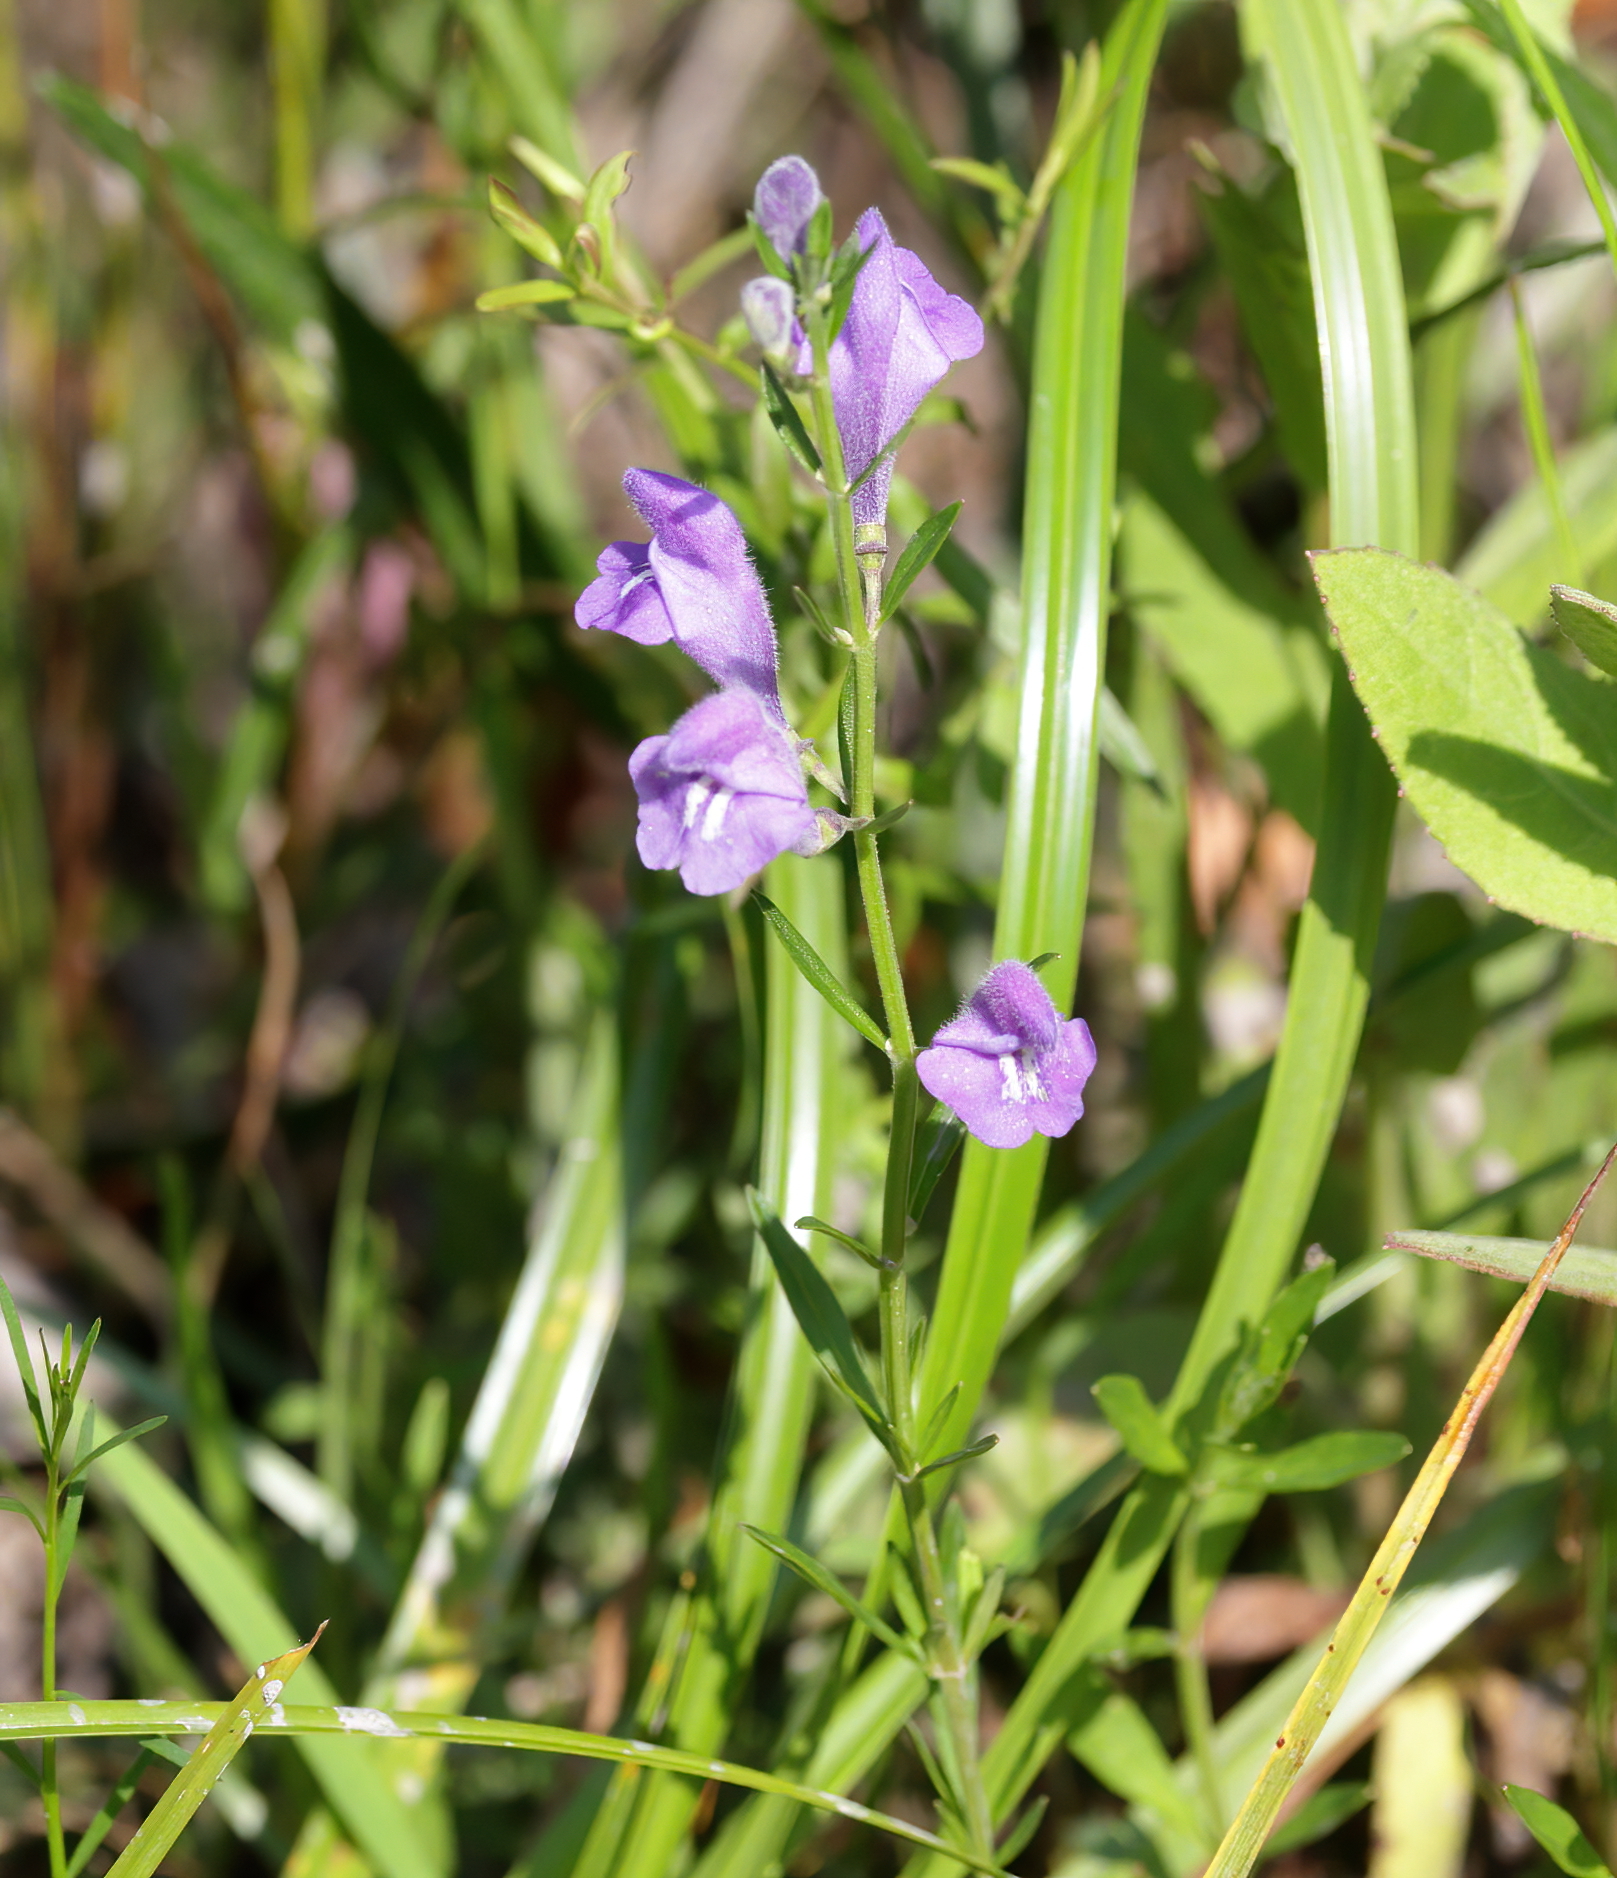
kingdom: Plantae
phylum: Tracheophyta
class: Magnoliopsida
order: Lamiales
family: Lamiaceae
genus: Scutellaria
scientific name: Scutellaria integrifolia
